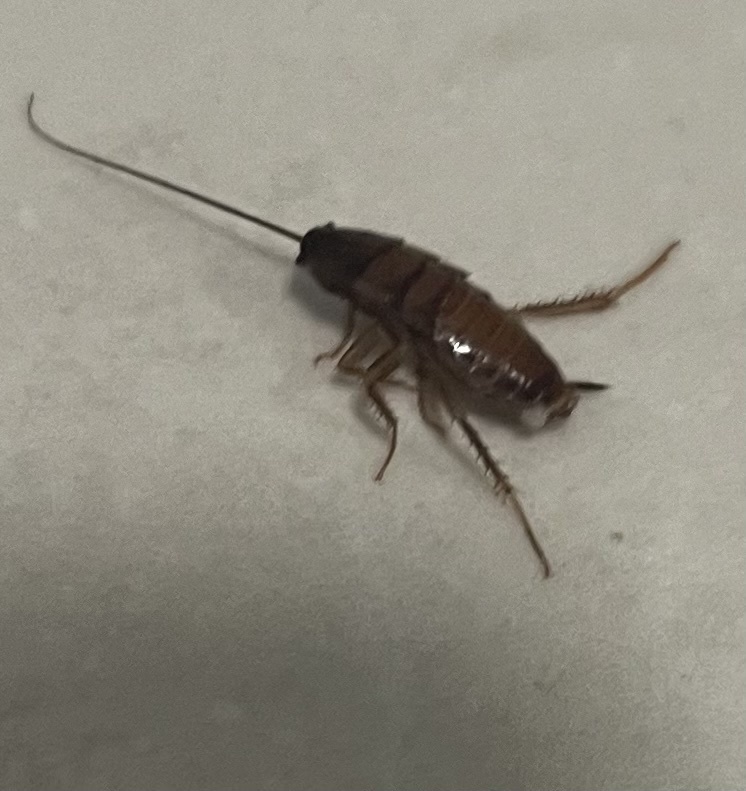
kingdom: Animalia
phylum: Arthropoda
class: Insecta
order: Blattodea
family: Blattidae
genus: Blatta
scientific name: Blatta orientalis
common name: Oriental cockroach
